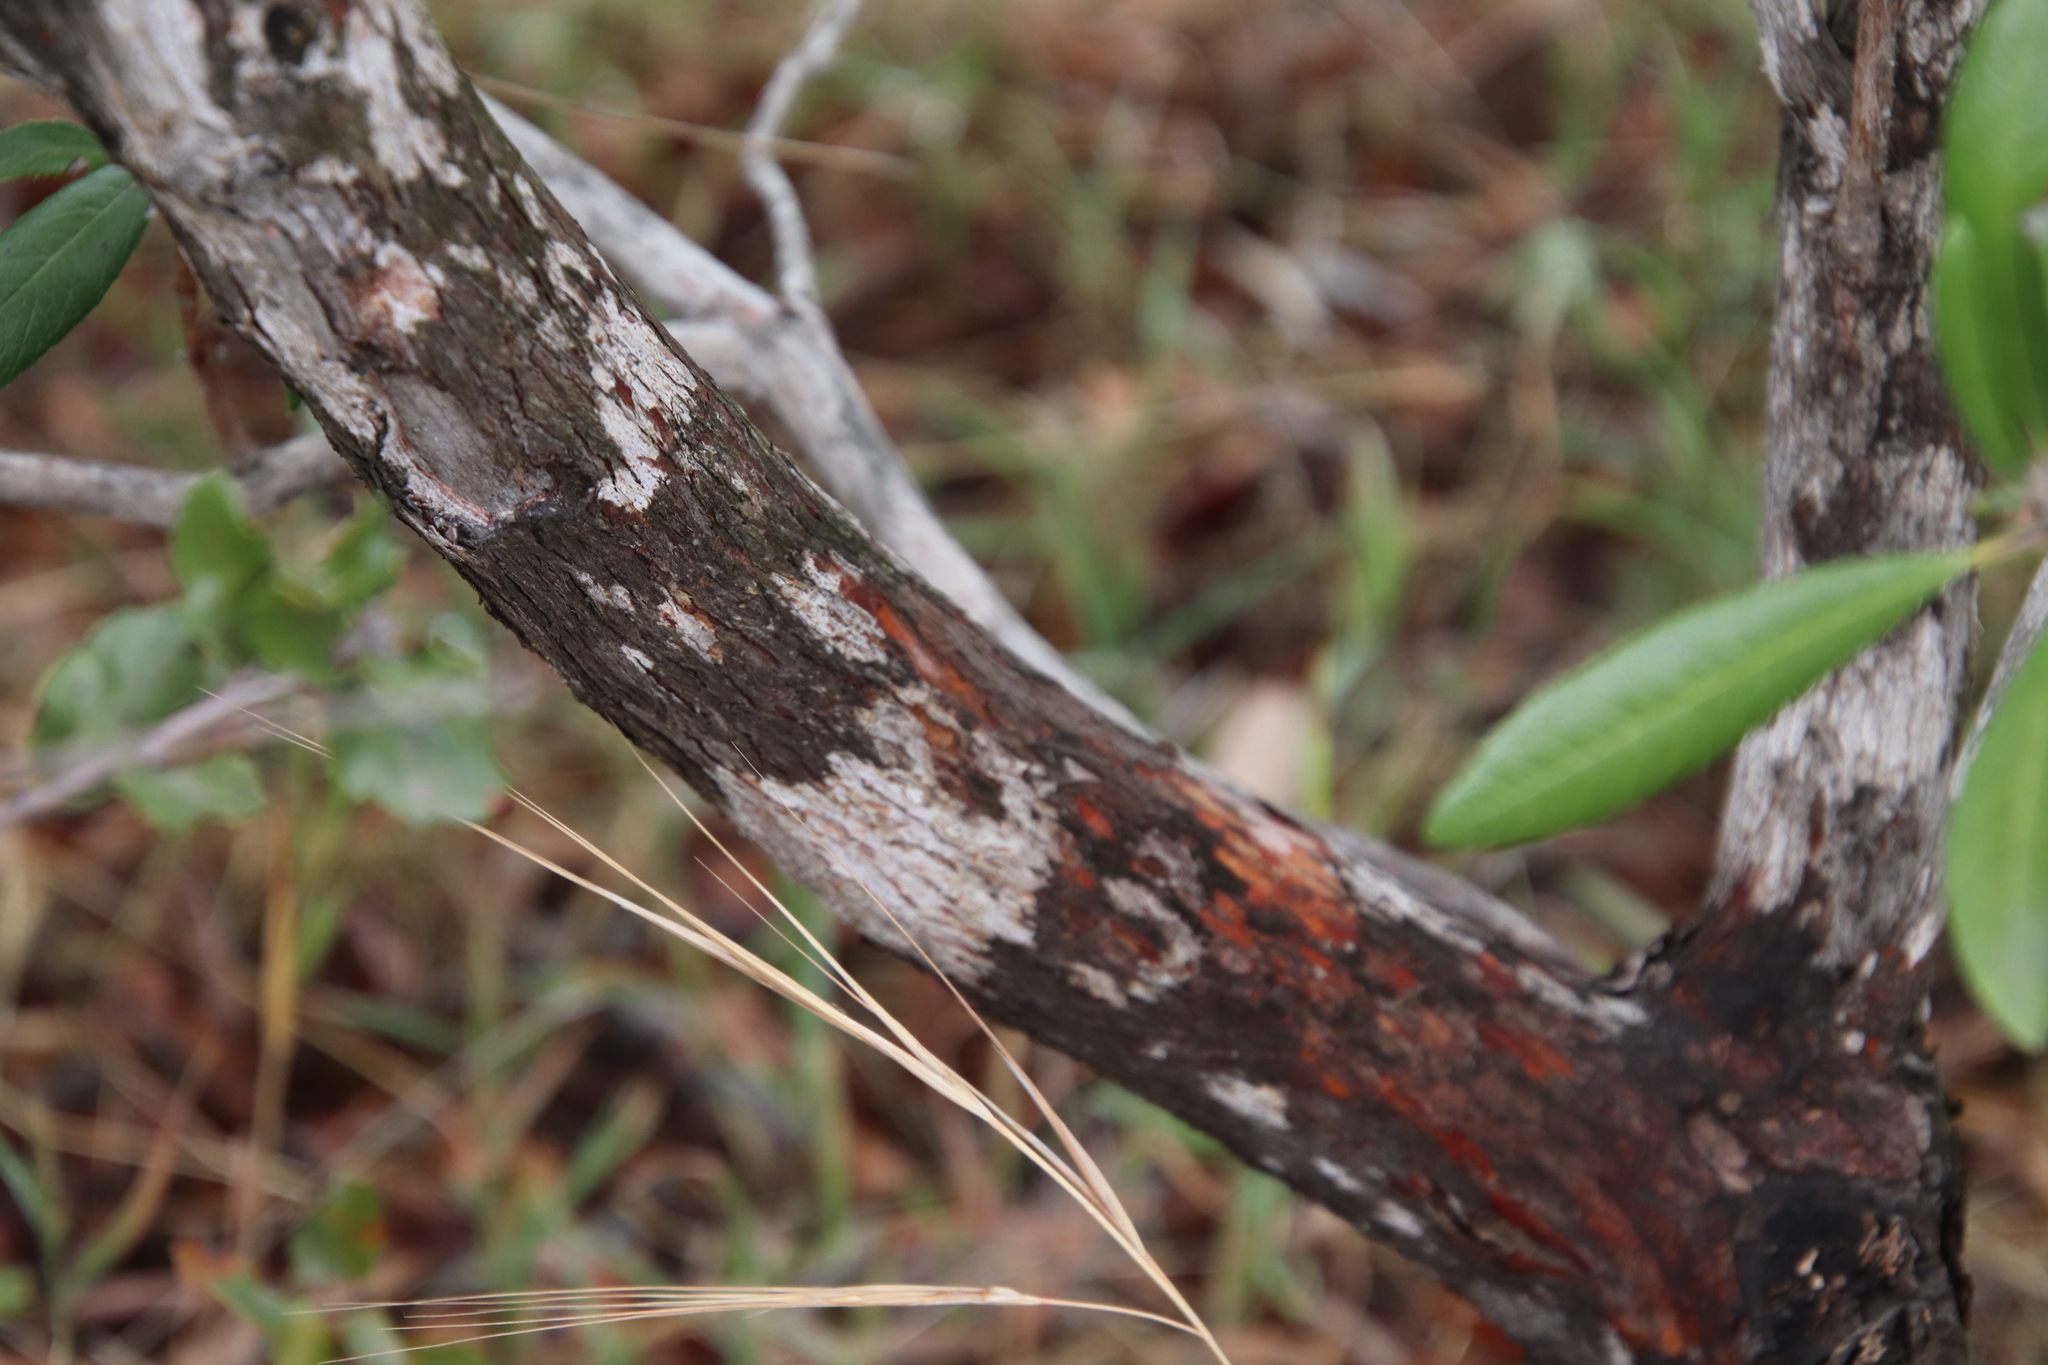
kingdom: Plantae
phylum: Tracheophyta
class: Magnoliopsida
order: Ericales
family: Ericaceae
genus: Comarostaphylis
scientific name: Comarostaphylis diversifolia
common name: Summer-holly
